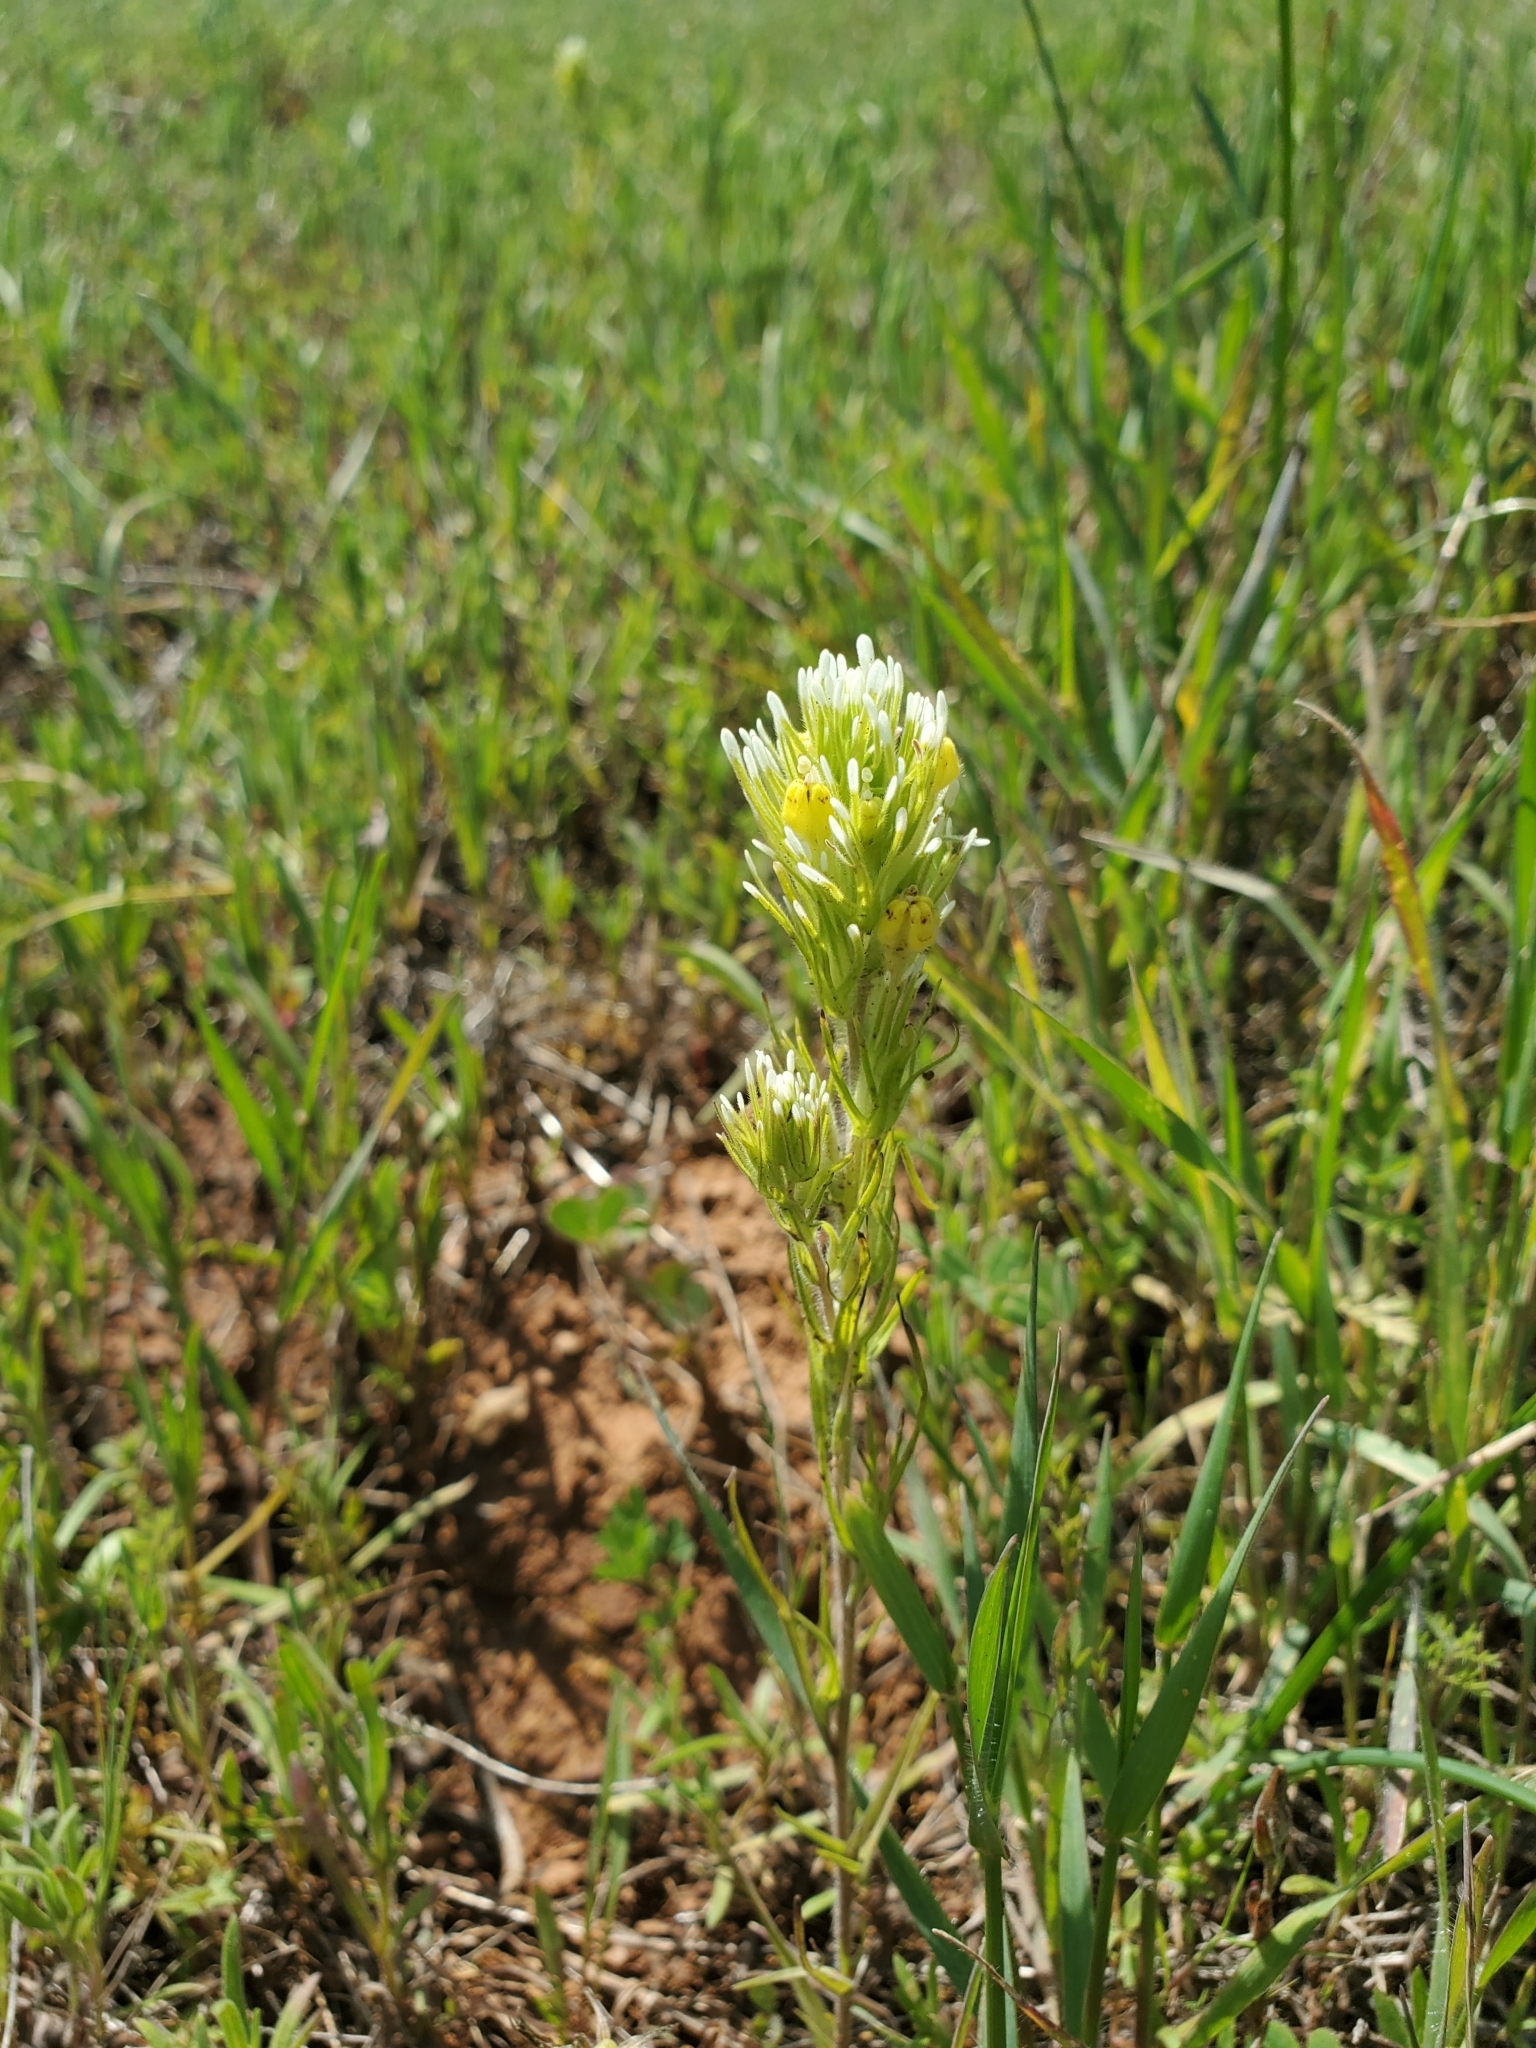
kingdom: Plantae
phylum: Tracheophyta
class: Magnoliopsida
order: Lamiales
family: Orobanchaceae
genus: Castilleja
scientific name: Castilleja lineariloba
